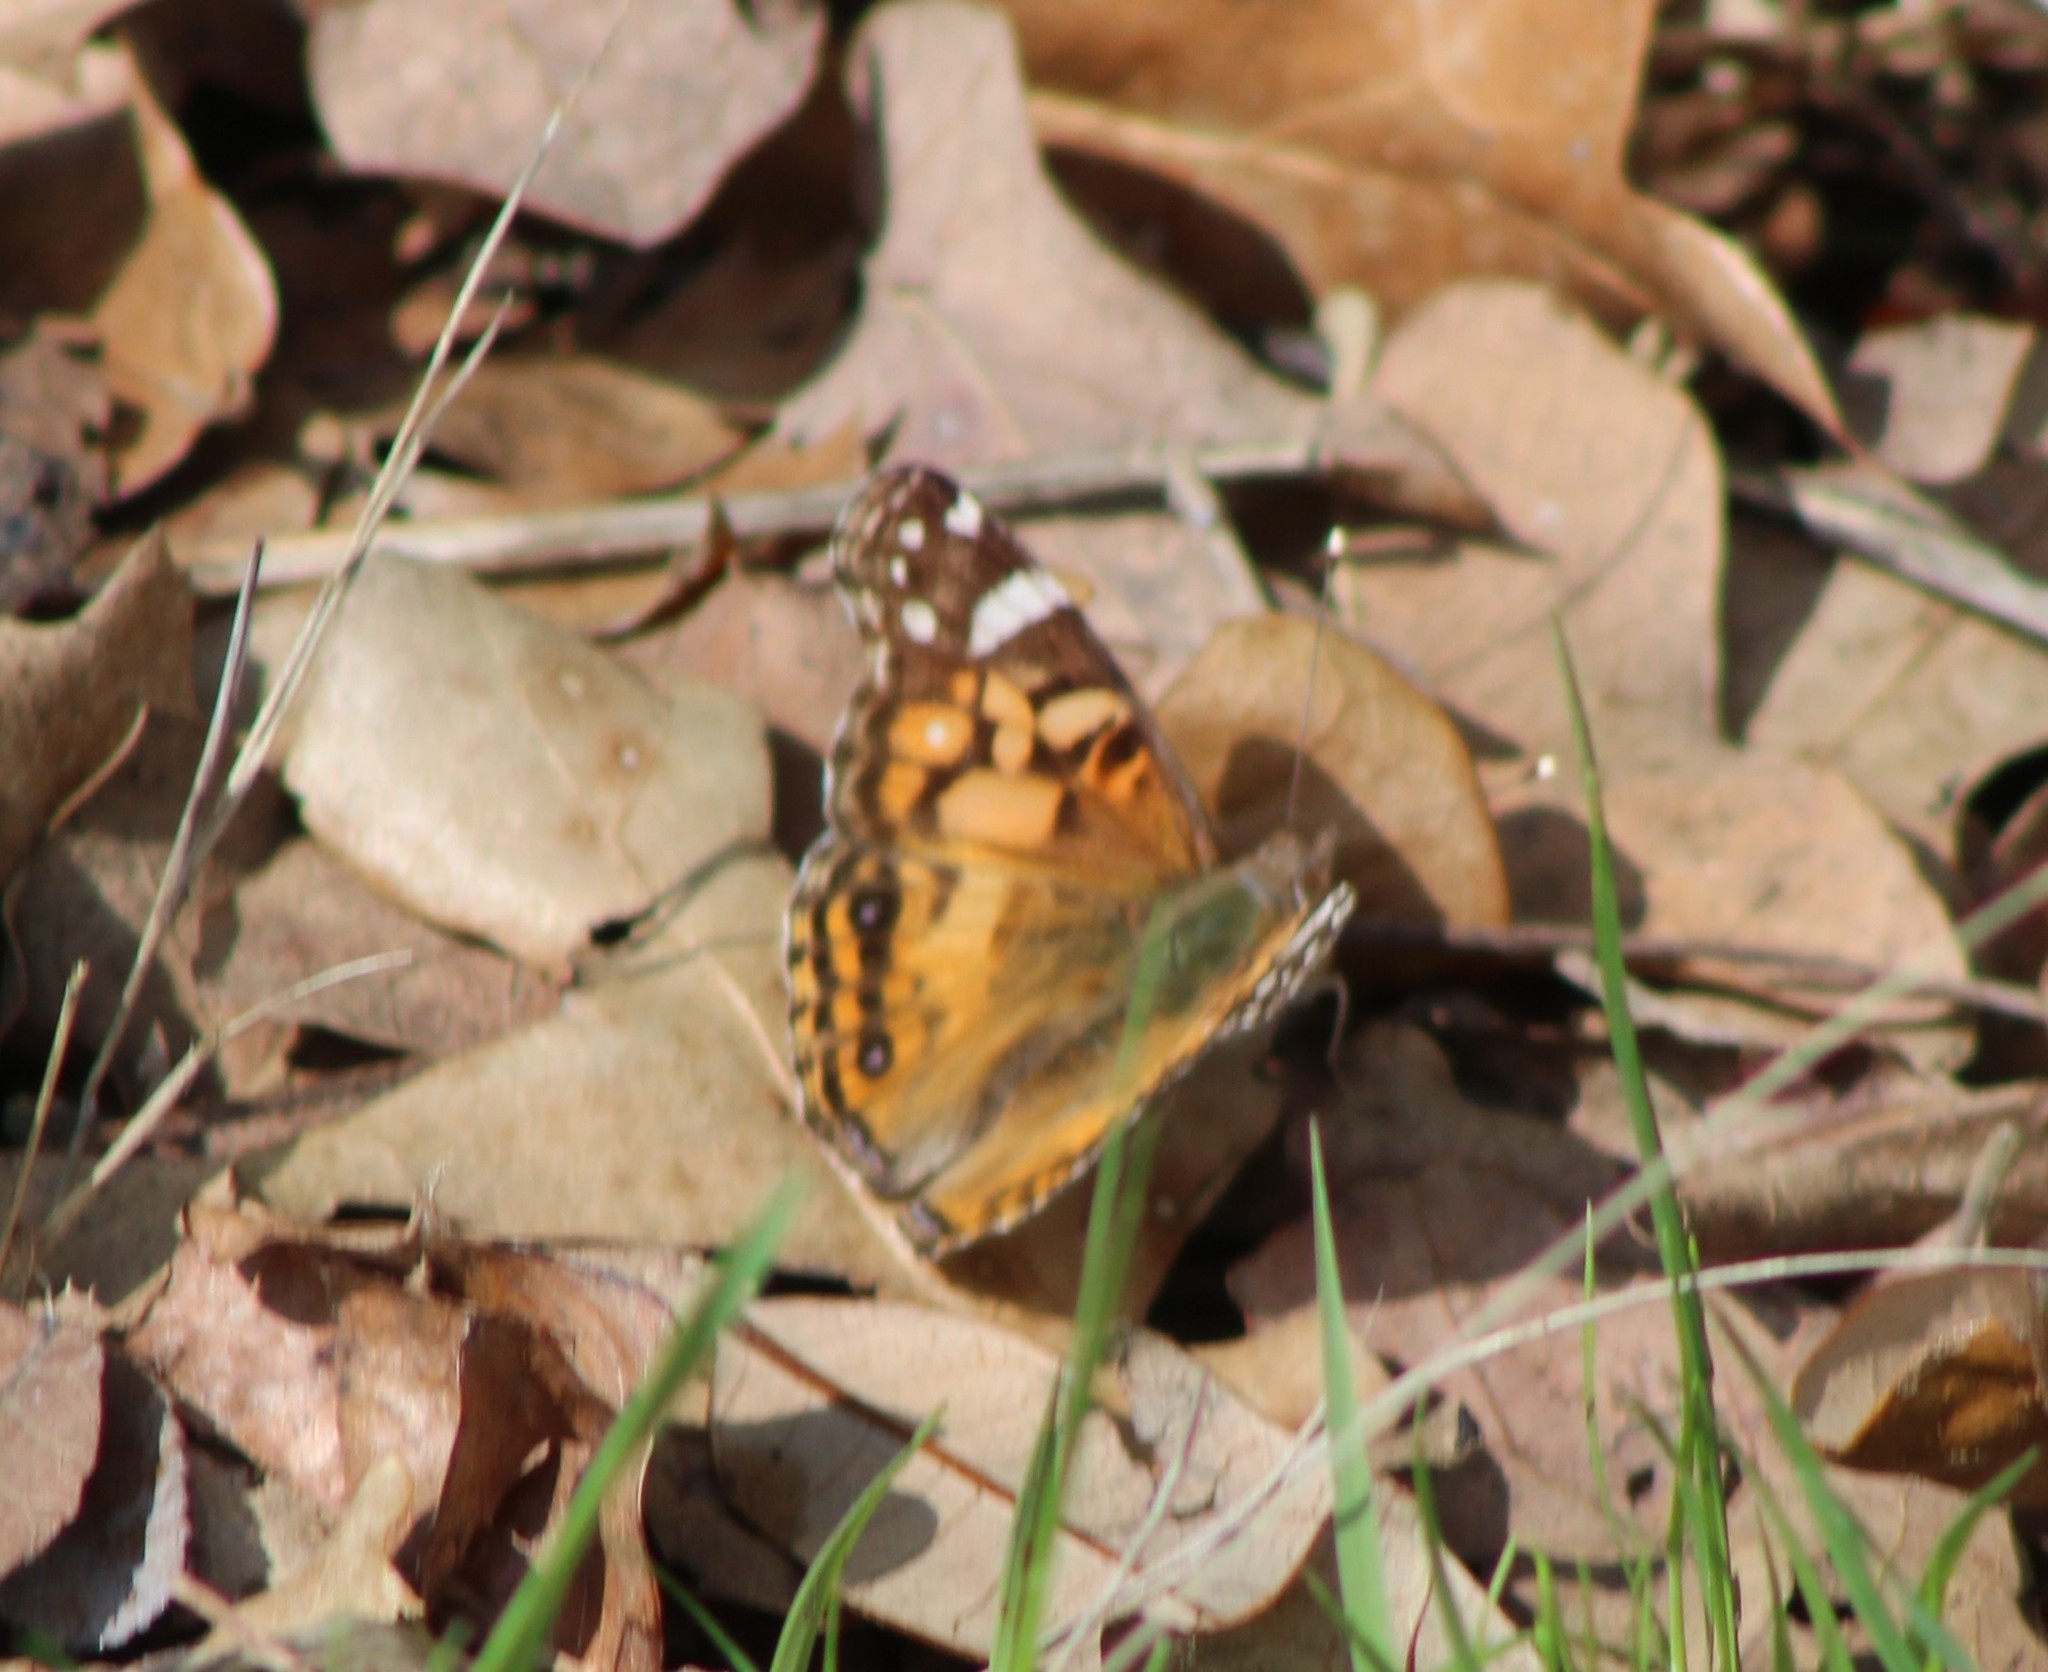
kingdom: Animalia
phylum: Arthropoda
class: Insecta
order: Lepidoptera
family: Nymphalidae
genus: Vanessa
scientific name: Vanessa virginiensis
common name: American lady
